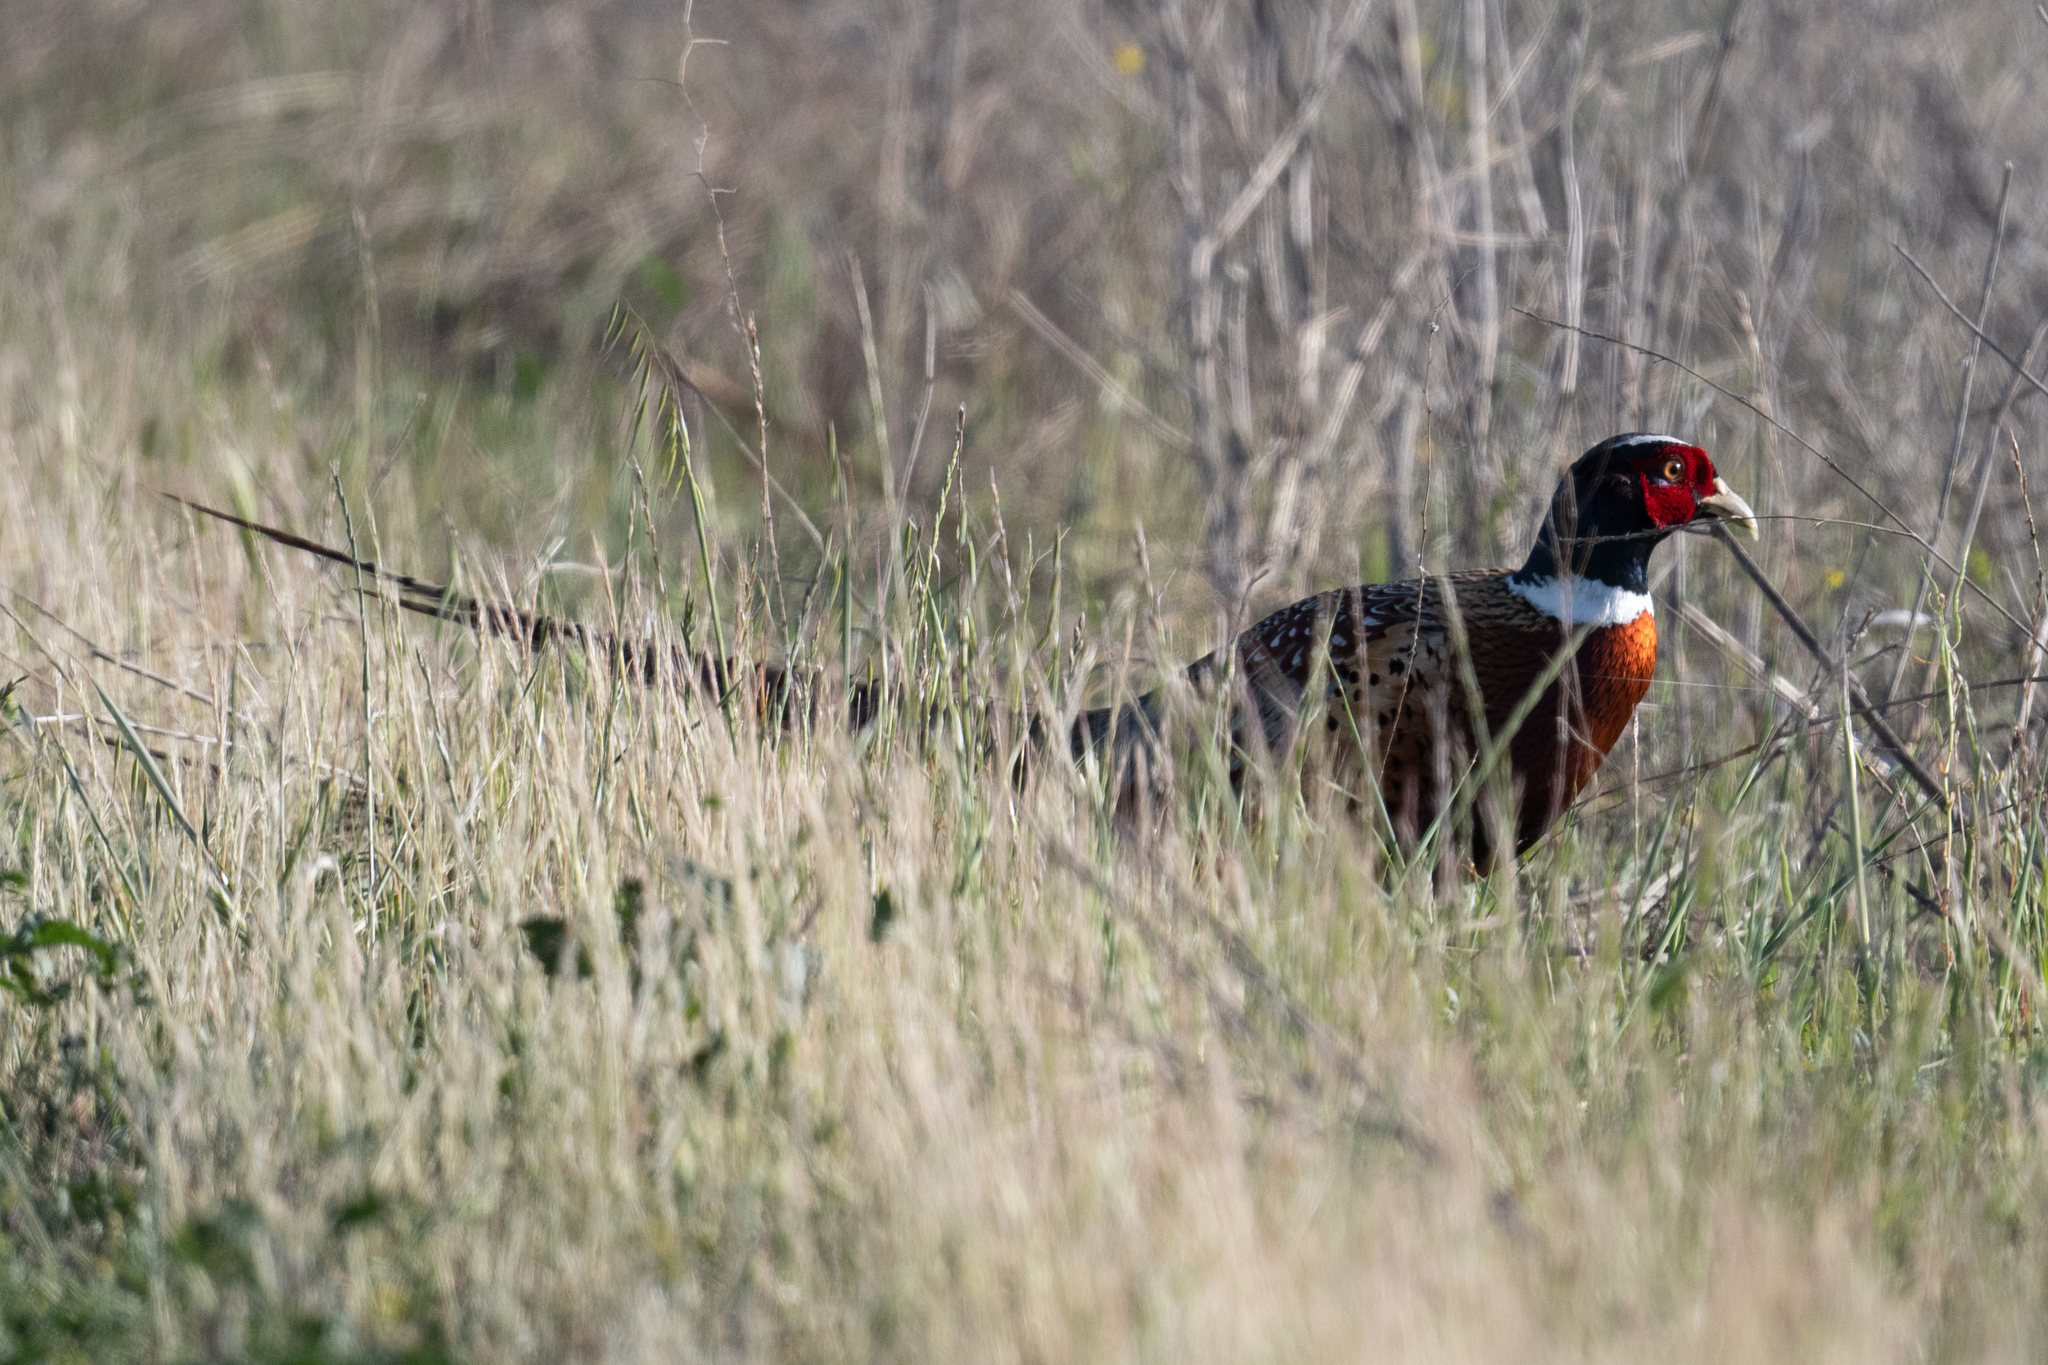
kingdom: Animalia
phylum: Chordata
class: Aves
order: Galliformes
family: Phasianidae
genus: Phasianus
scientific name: Phasianus colchicus
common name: Common pheasant
